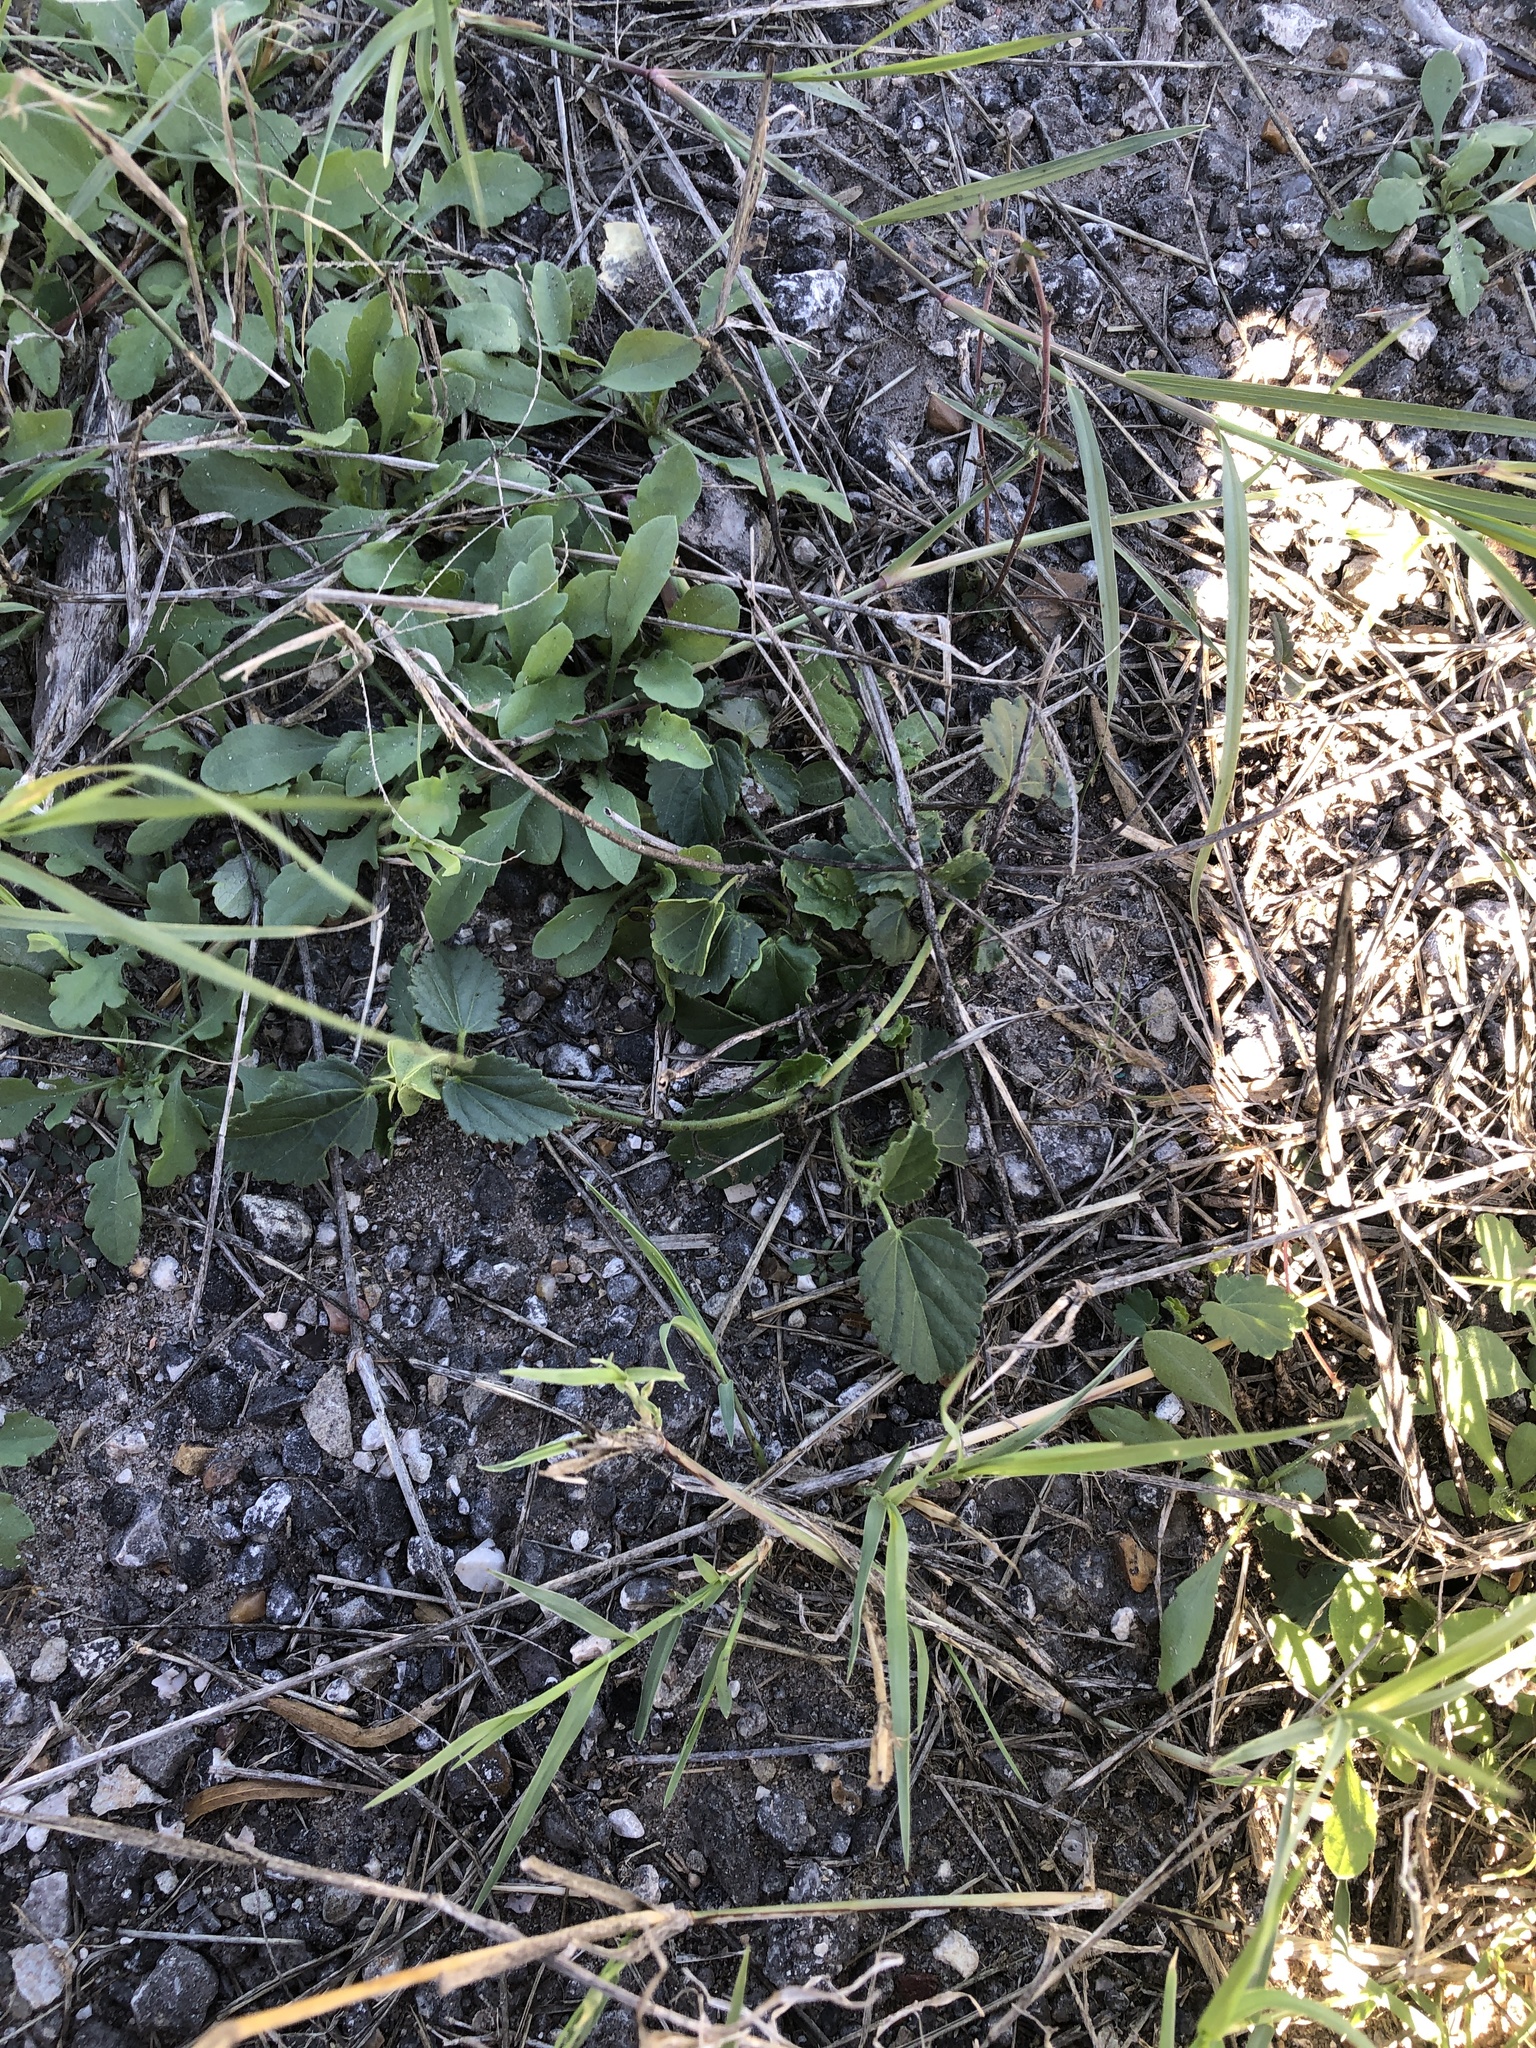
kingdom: Plantae
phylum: Tracheophyta
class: Magnoliopsida
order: Malvales
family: Malvaceae
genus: Rhynchosida
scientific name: Rhynchosida physocalyx
